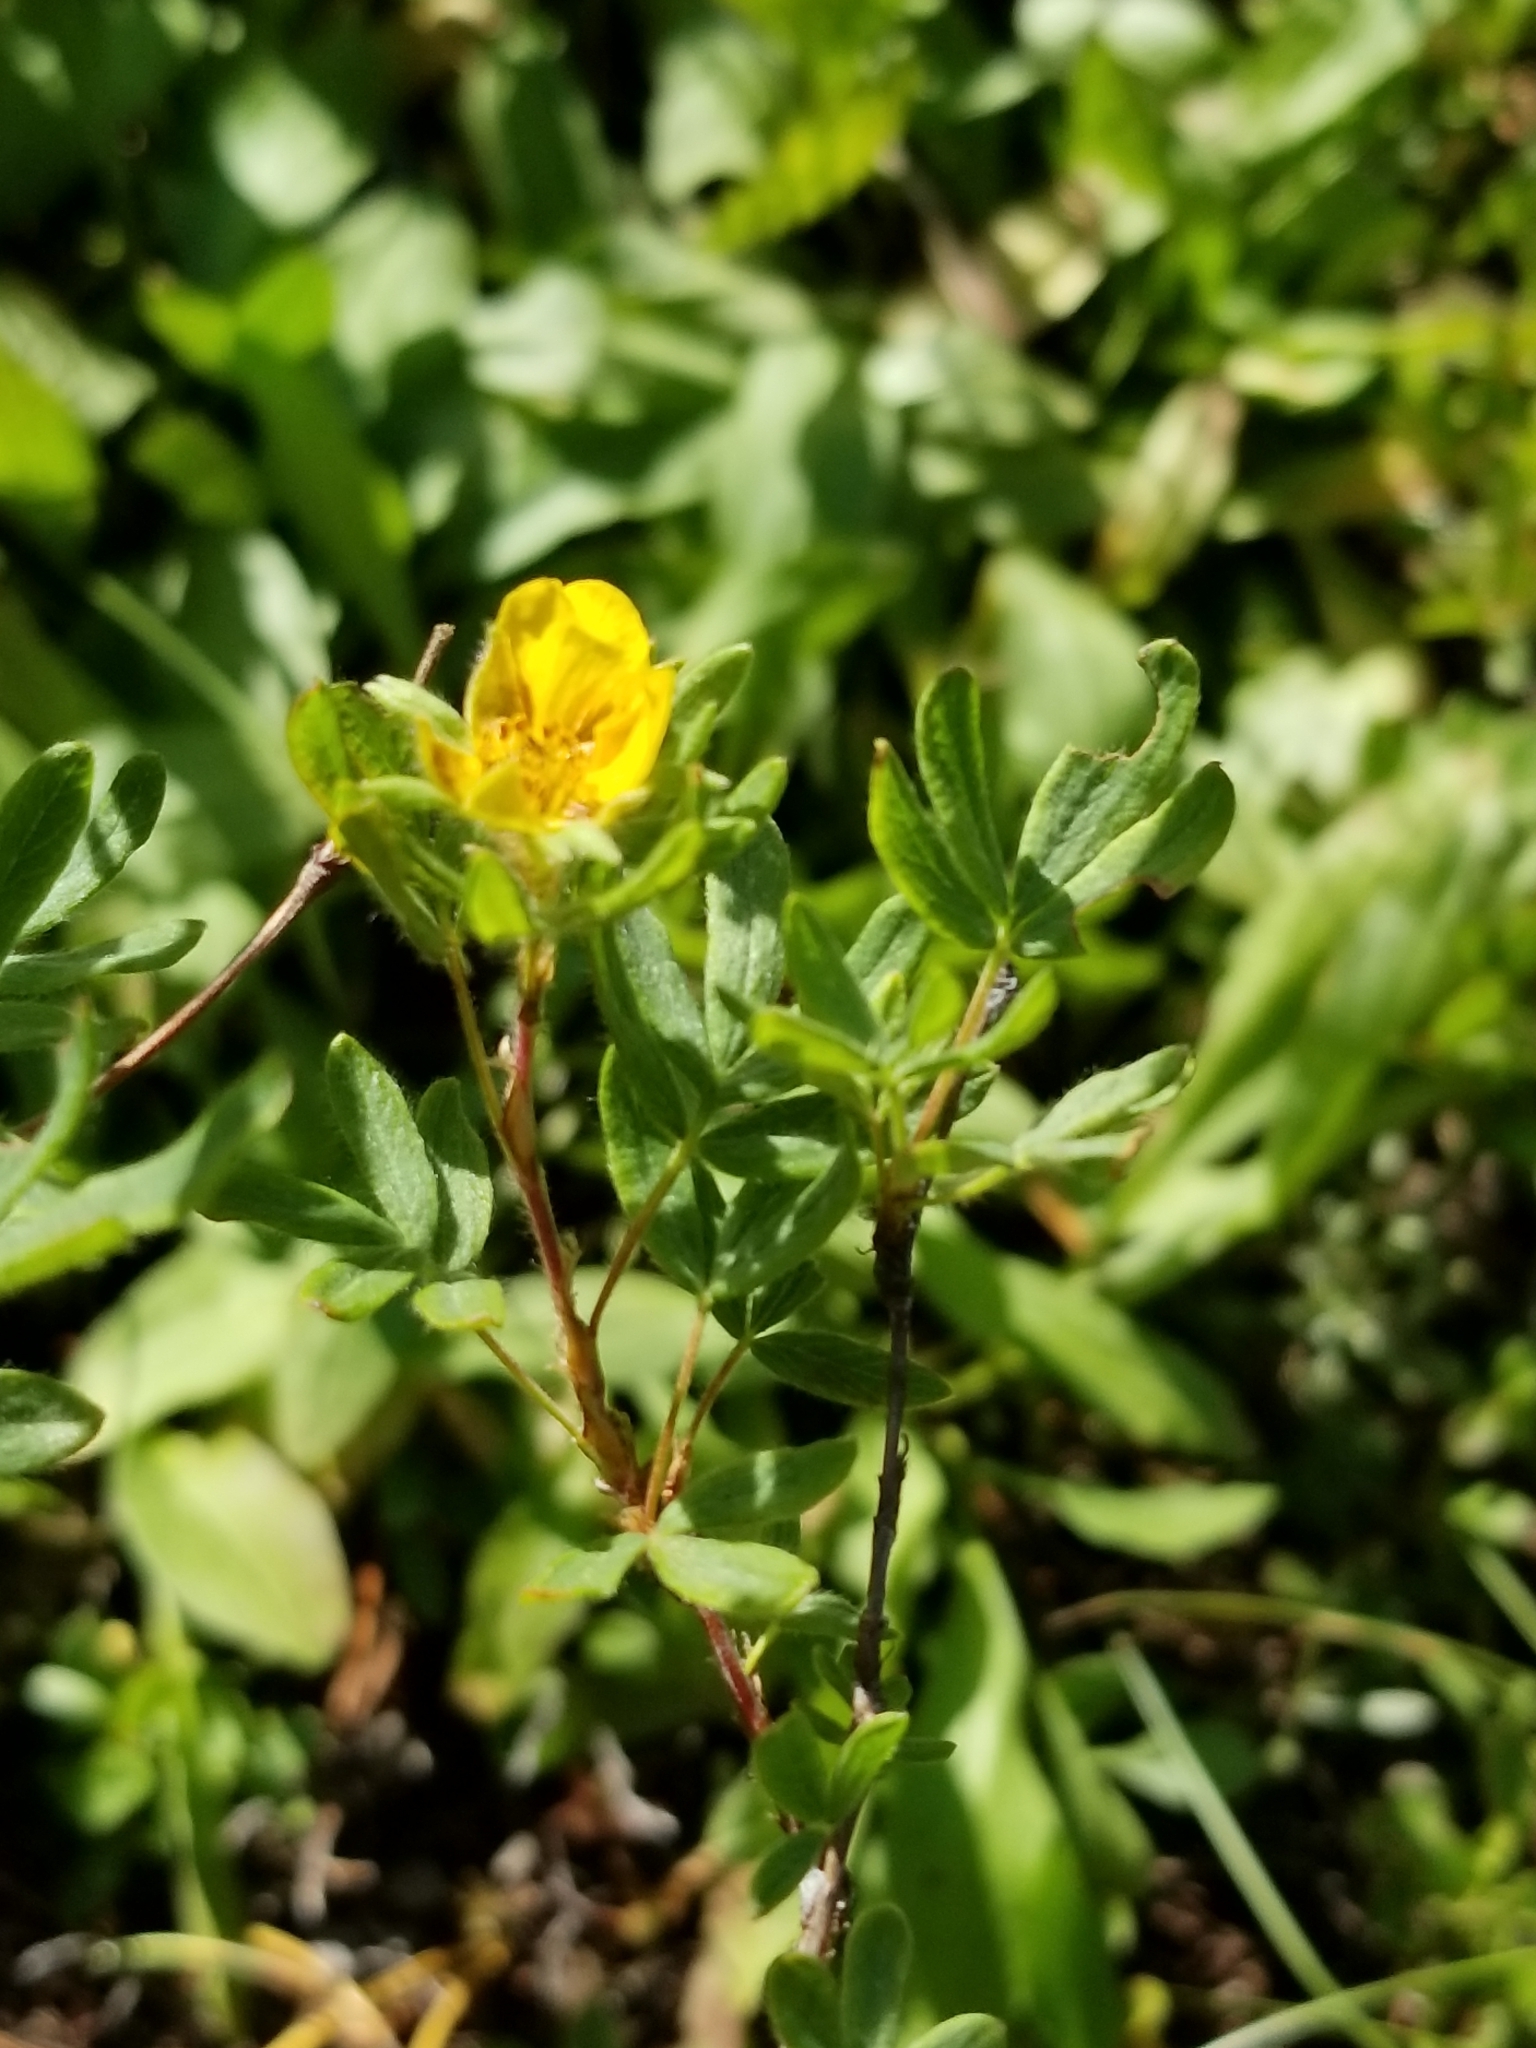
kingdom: Plantae
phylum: Tracheophyta
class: Magnoliopsida
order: Rosales
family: Rosaceae
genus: Dasiphora
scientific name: Dasiphora fruticosa
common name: Shrubby cinquefoil
